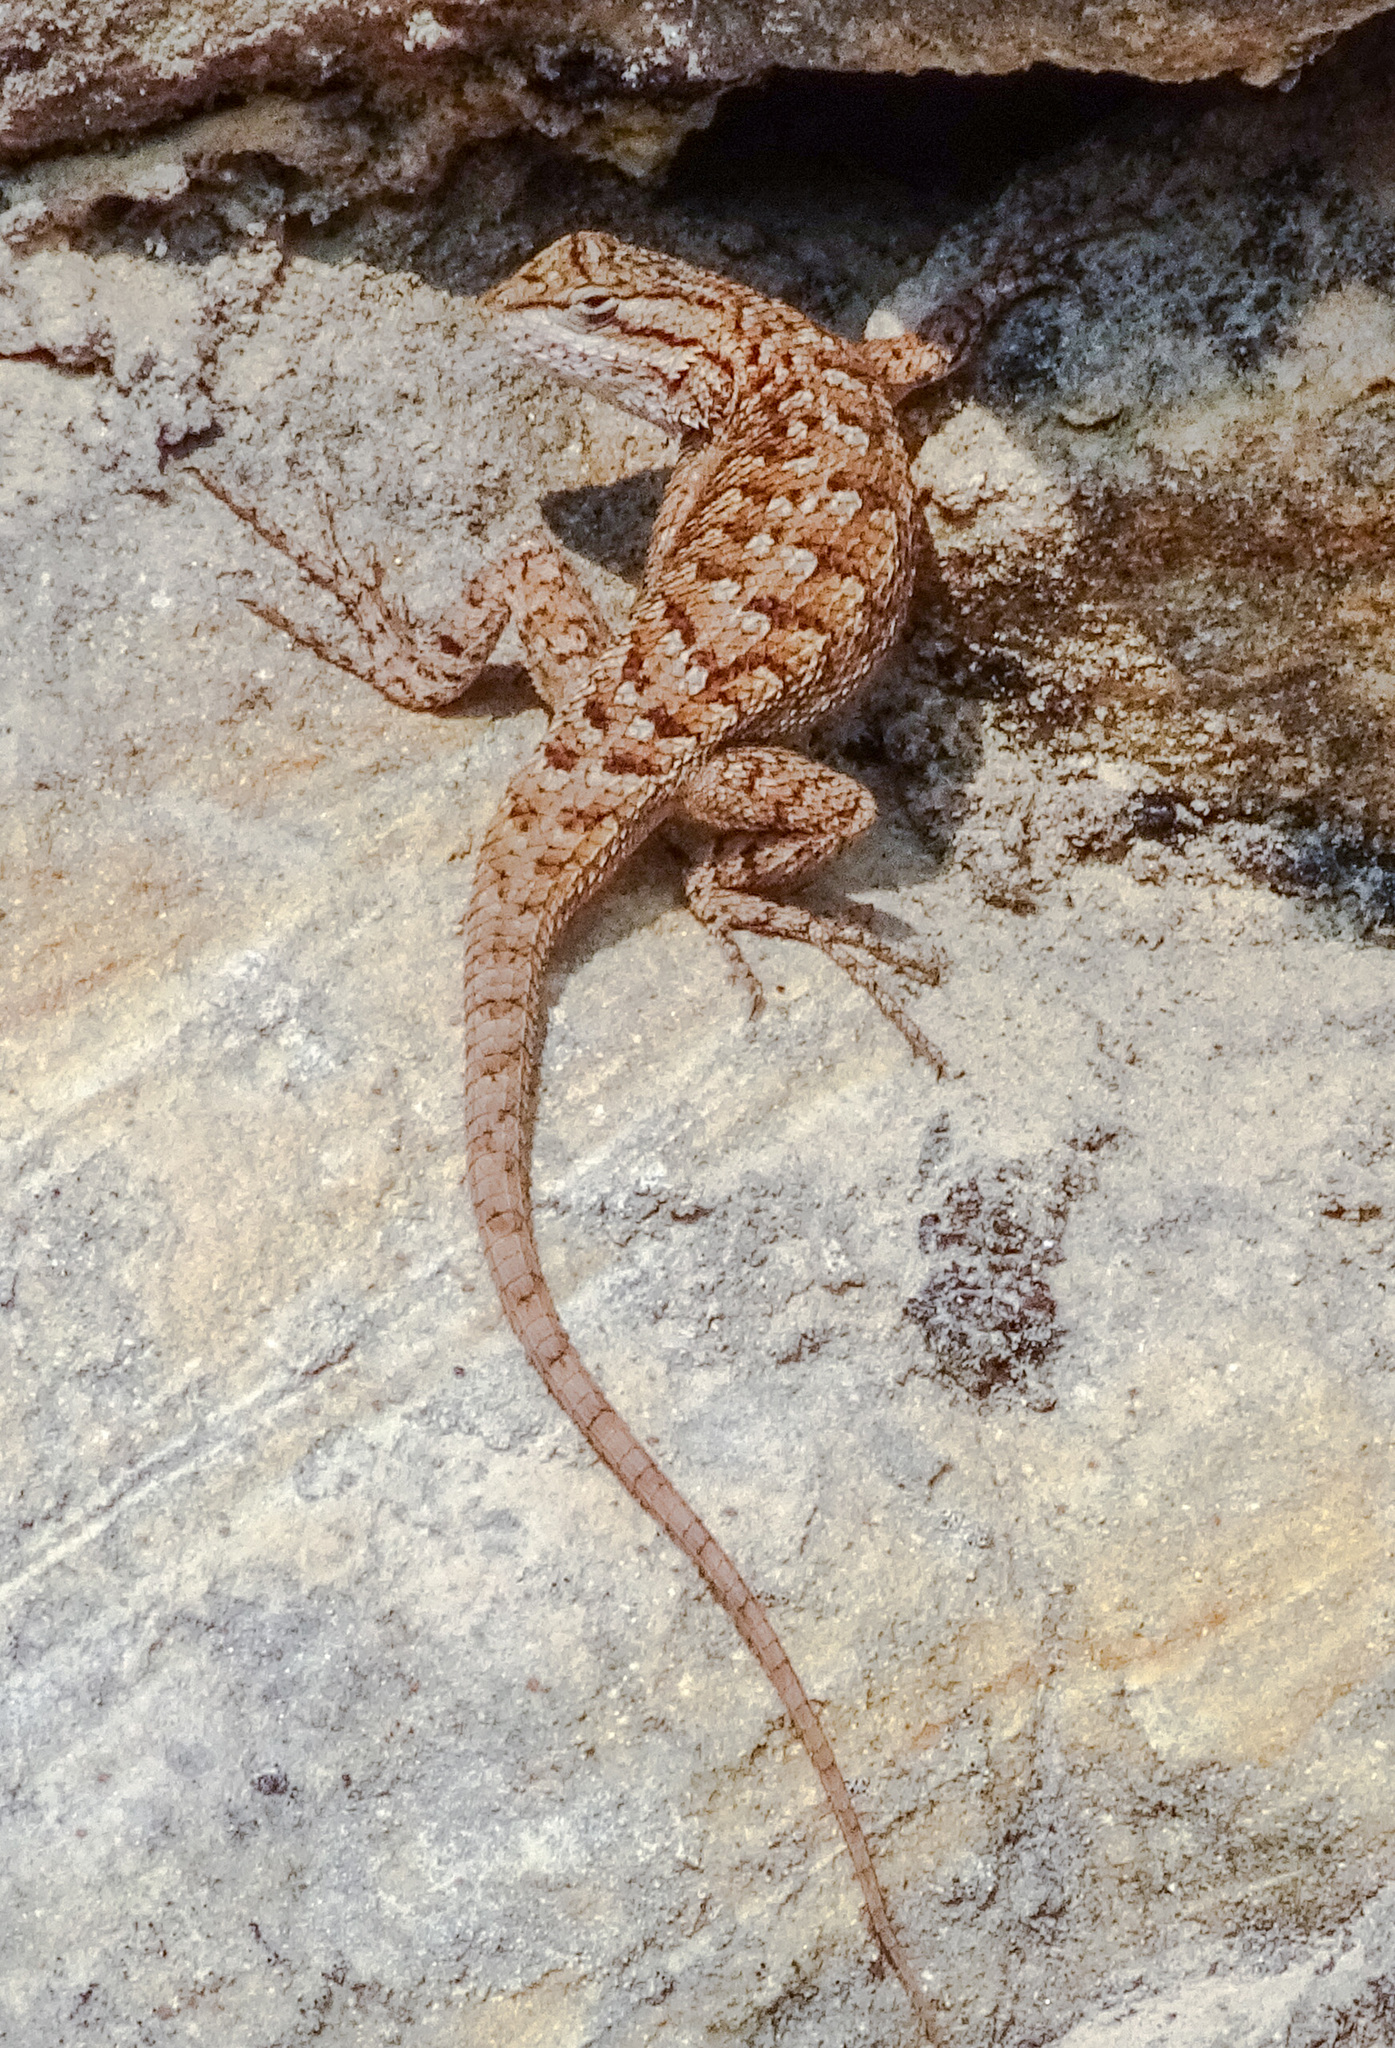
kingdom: Animalia
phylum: Chordata
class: Squamata
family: Phrynosomatidae
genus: Sceloporus
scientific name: Sceloporus tristichus
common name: Plateau fence lizard
